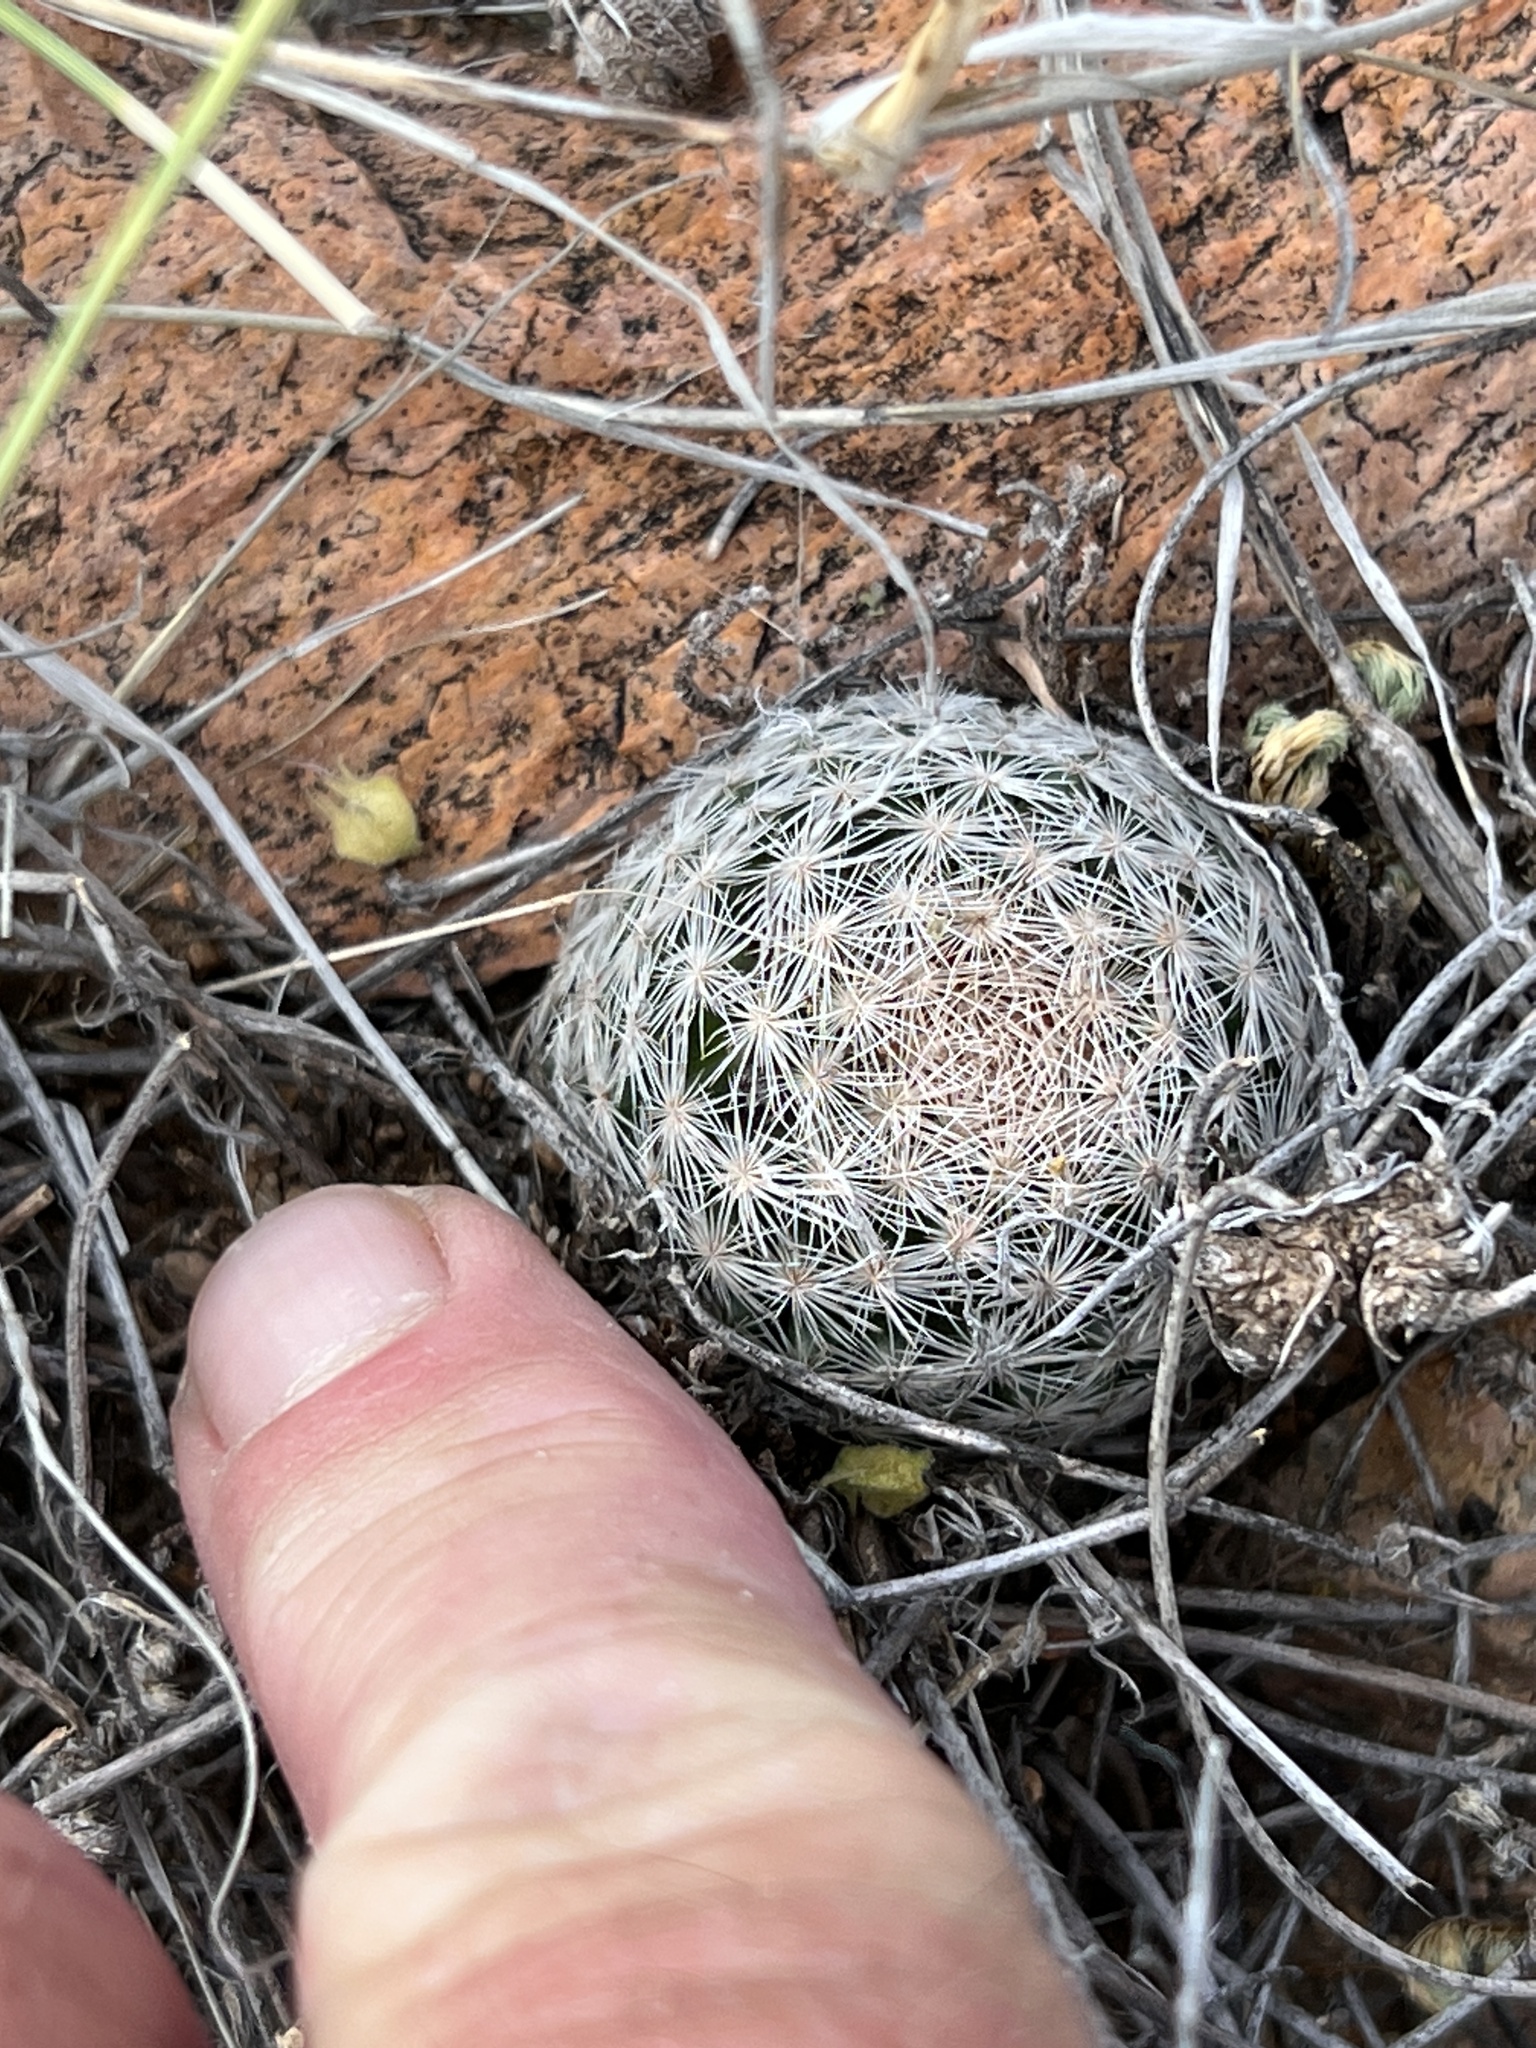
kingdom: Plantae
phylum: Tracheophyta
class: Magnoliopsida
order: Caryophyllales
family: Cactaceae
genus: Mammillaria
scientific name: Mammillaria lasiacantha
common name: Lace-spine nipple cactus
